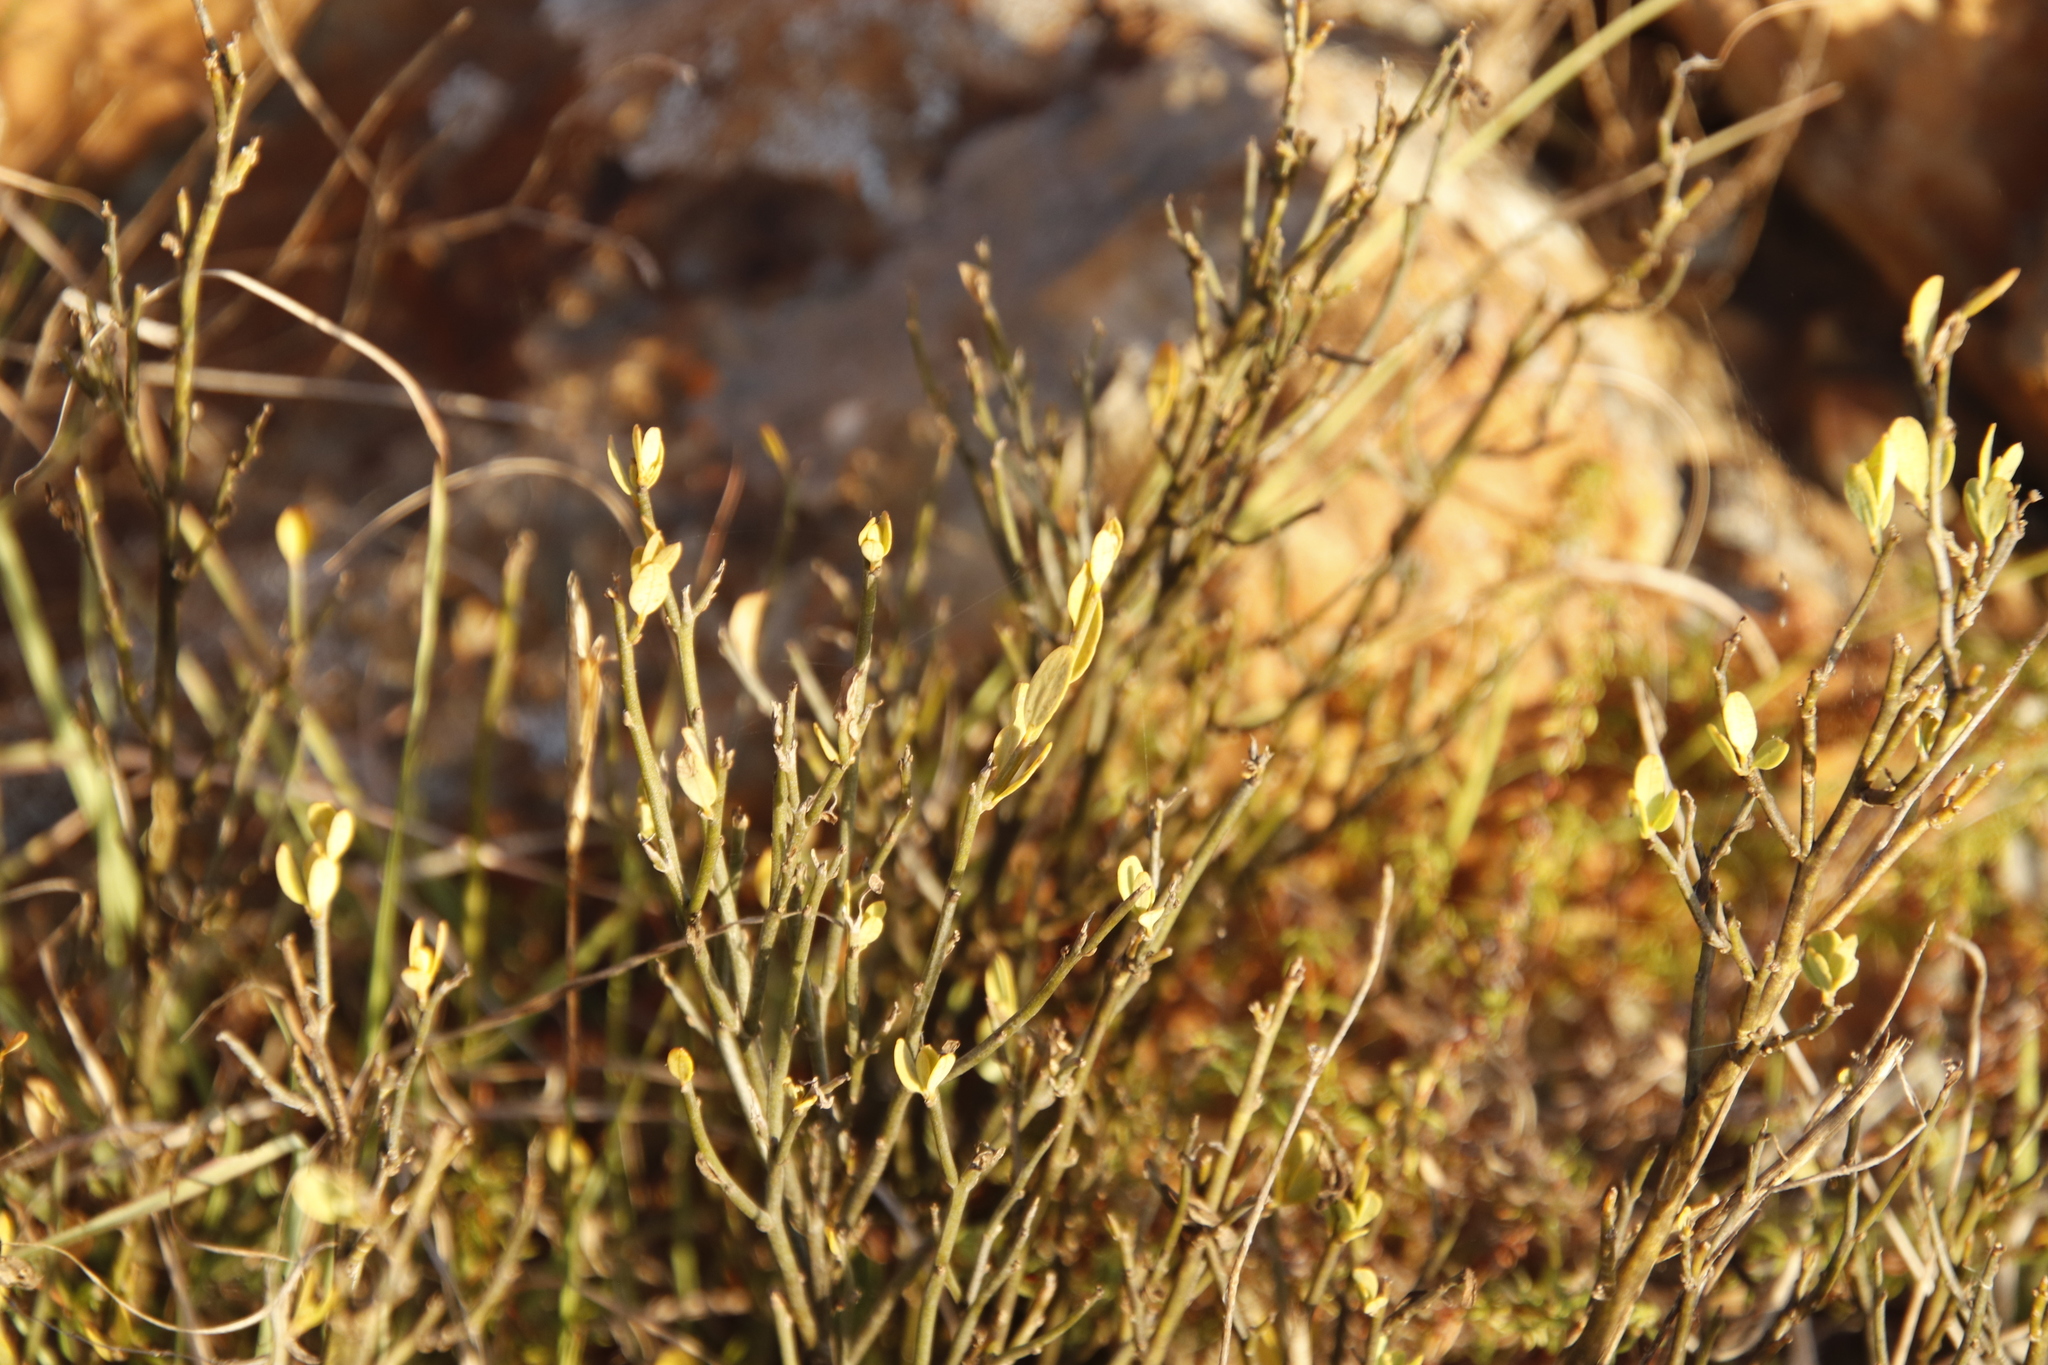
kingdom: Plantae
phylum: Tracheophyta
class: Magnoliopsida
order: Solanales
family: Montiniaceae
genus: Montinia
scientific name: Montinia caryophyllacea
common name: Wild clove-bush
